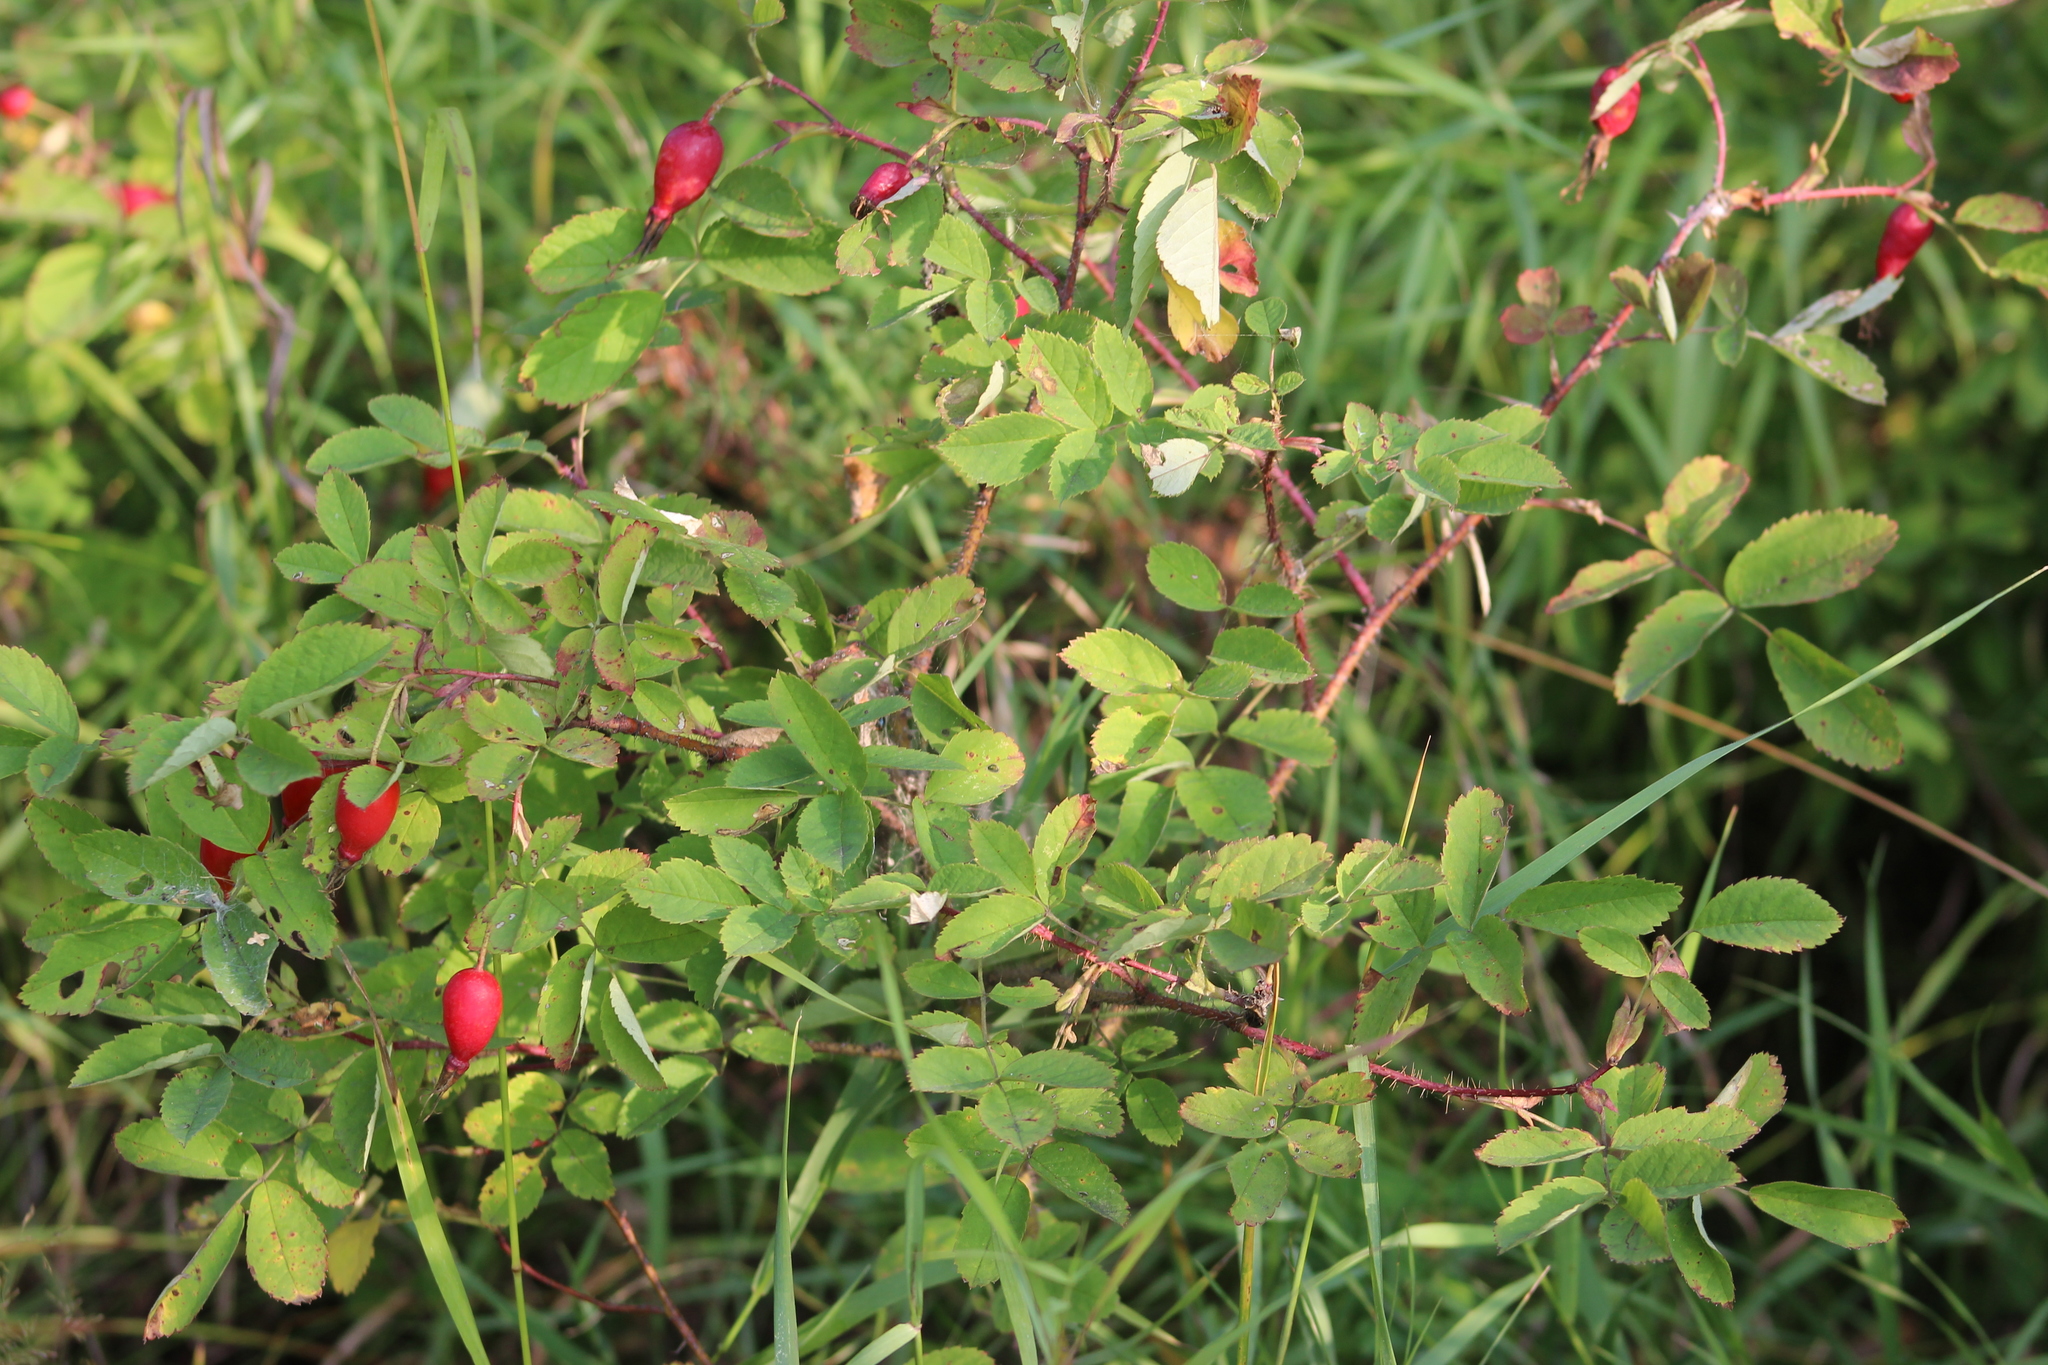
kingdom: Plantae
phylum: Tracheophyta
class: Magnoliopsida
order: Rosales
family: Rosaceae
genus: Rosa
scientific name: Rosa acicularis
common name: Prickly rose
